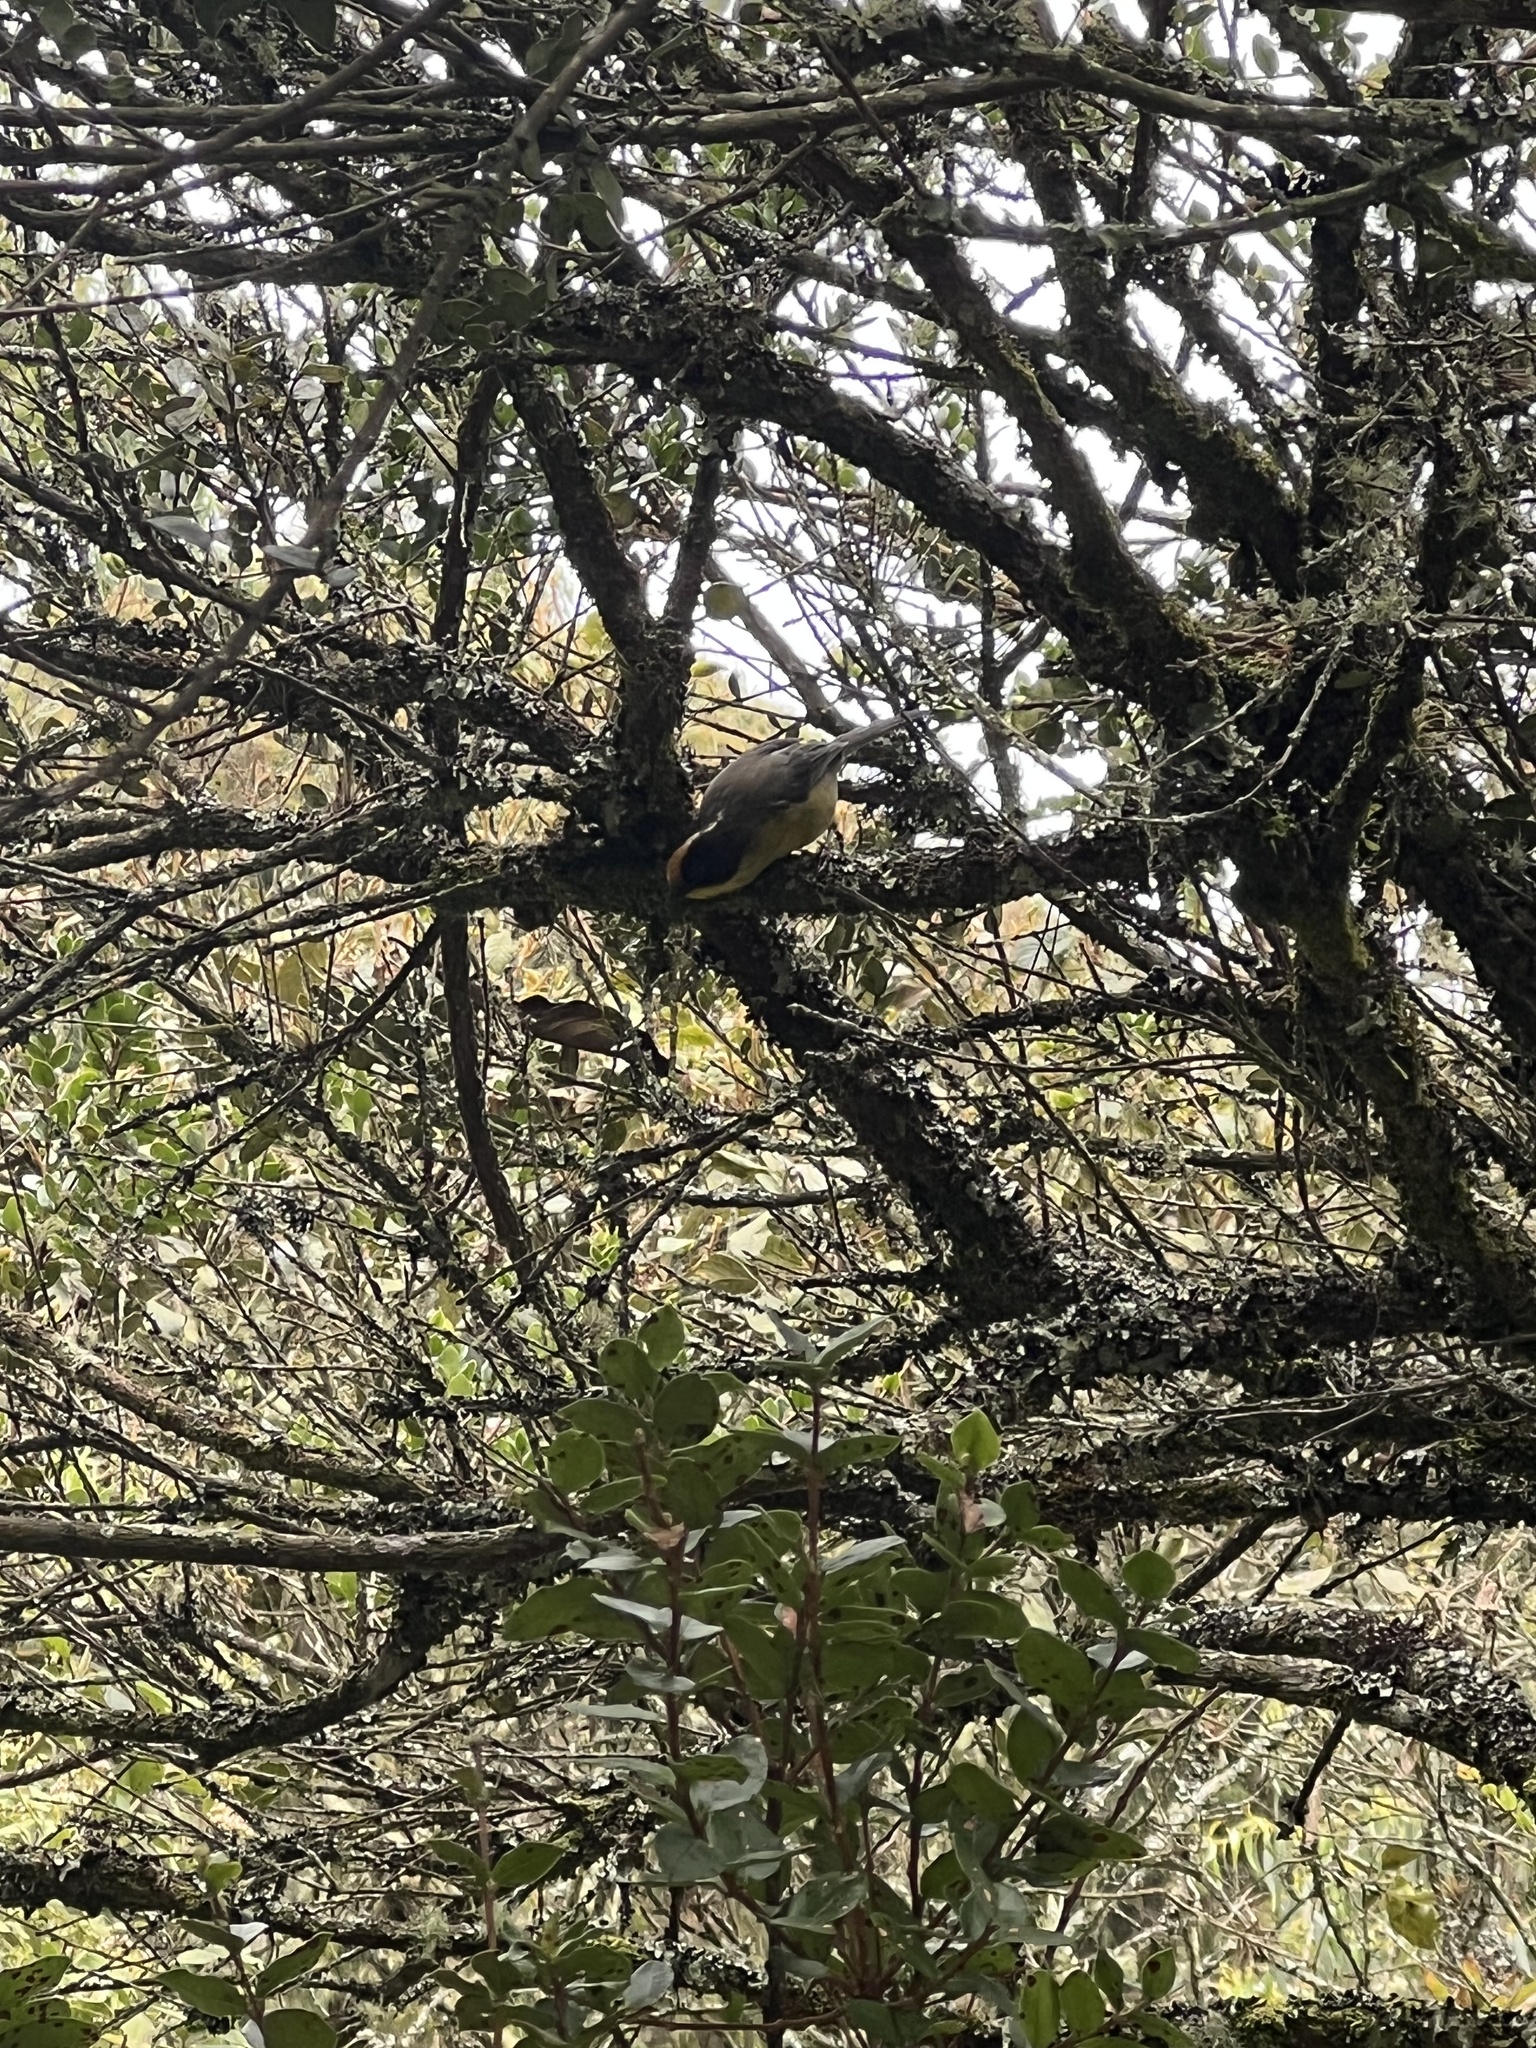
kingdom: Animalia
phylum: Chordata
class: Aves
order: Passeriformes
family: Passerellidae
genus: Atlapetes
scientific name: Atlapetes pallidinucha
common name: Pale-naped brushfinch
